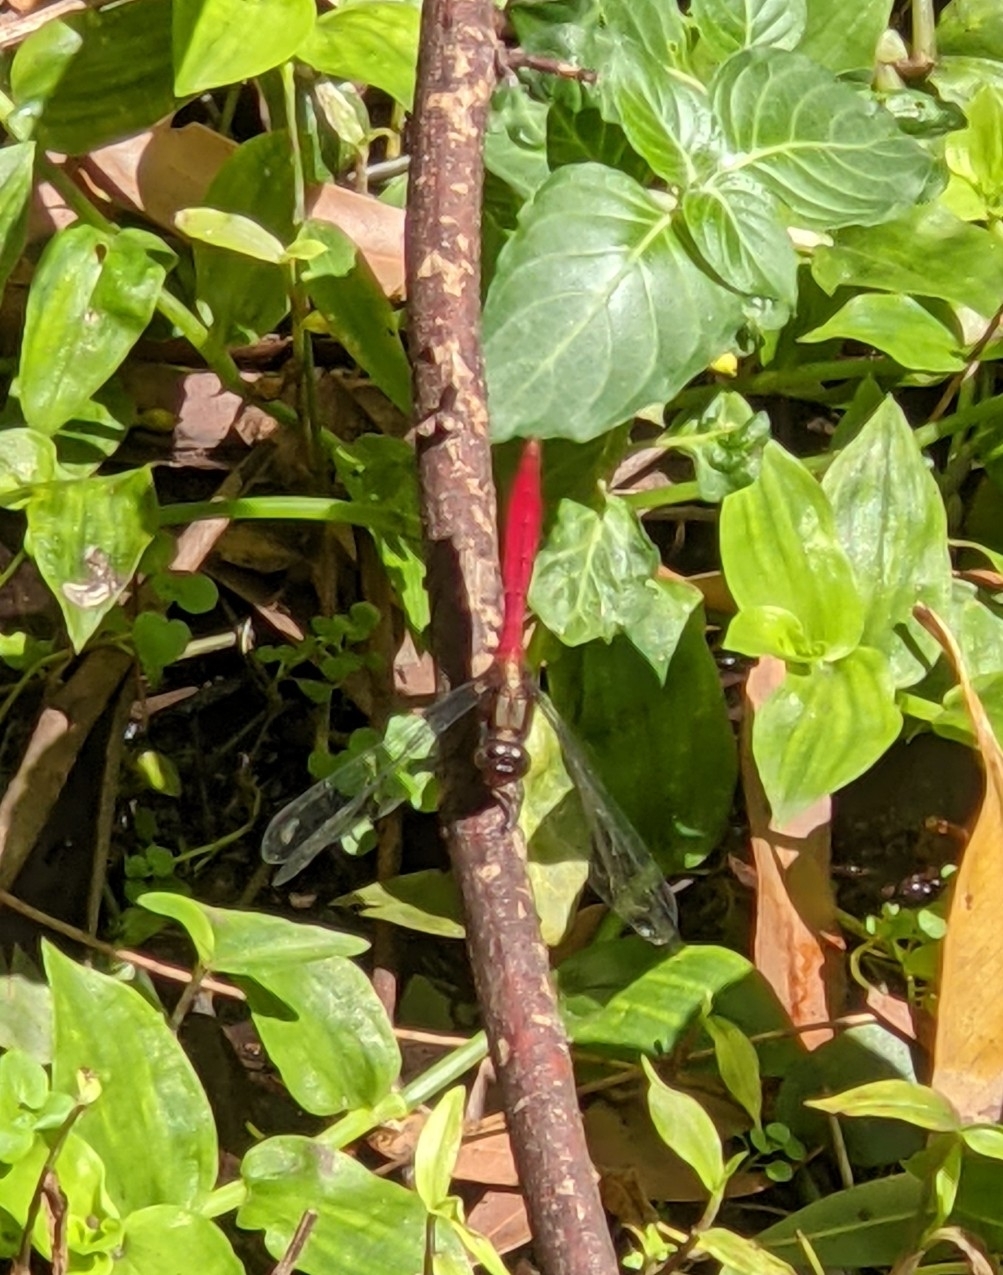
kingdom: Animalia
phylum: Arthropoda
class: Insecta
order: Odonata
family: Libellulidae
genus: Orthetrum
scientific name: Orthetrum villosovittatum
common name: Firery skimmer
